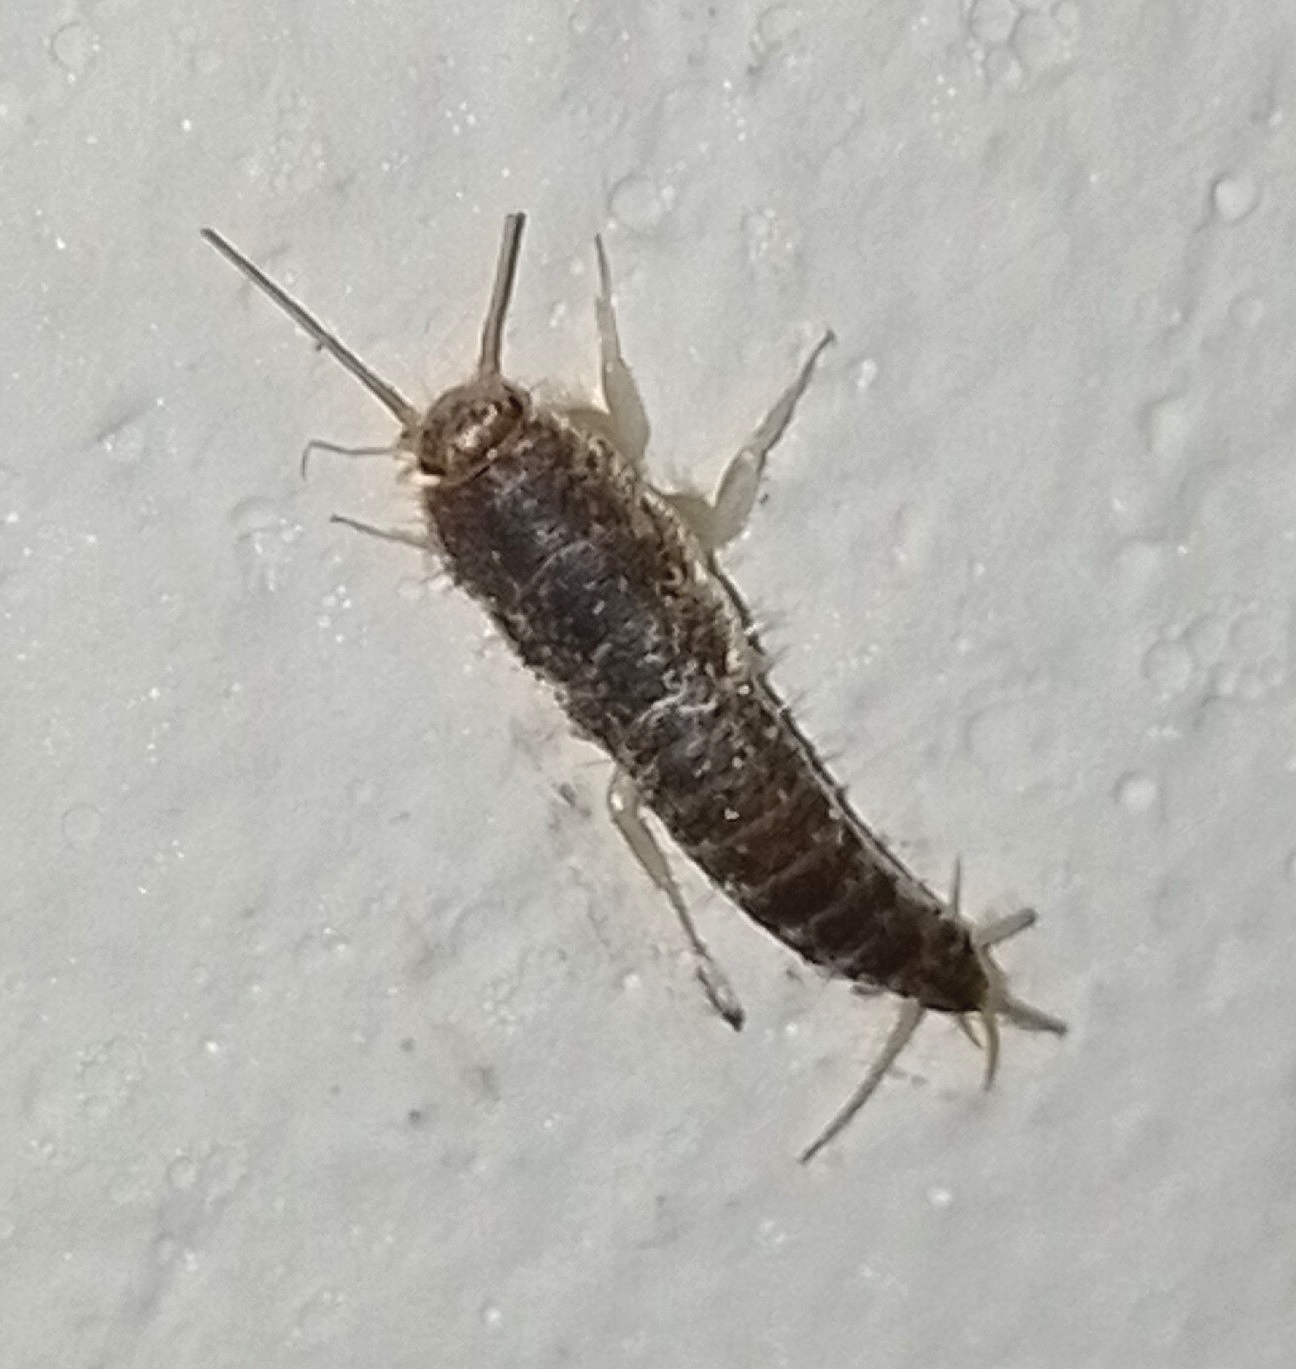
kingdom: Animalia
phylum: Arthropoda
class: Insecta
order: Zygentoma
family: Lepismatidae
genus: Ctenolepisma
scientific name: Ctenolepisma longicaudatum
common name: Silverfish
